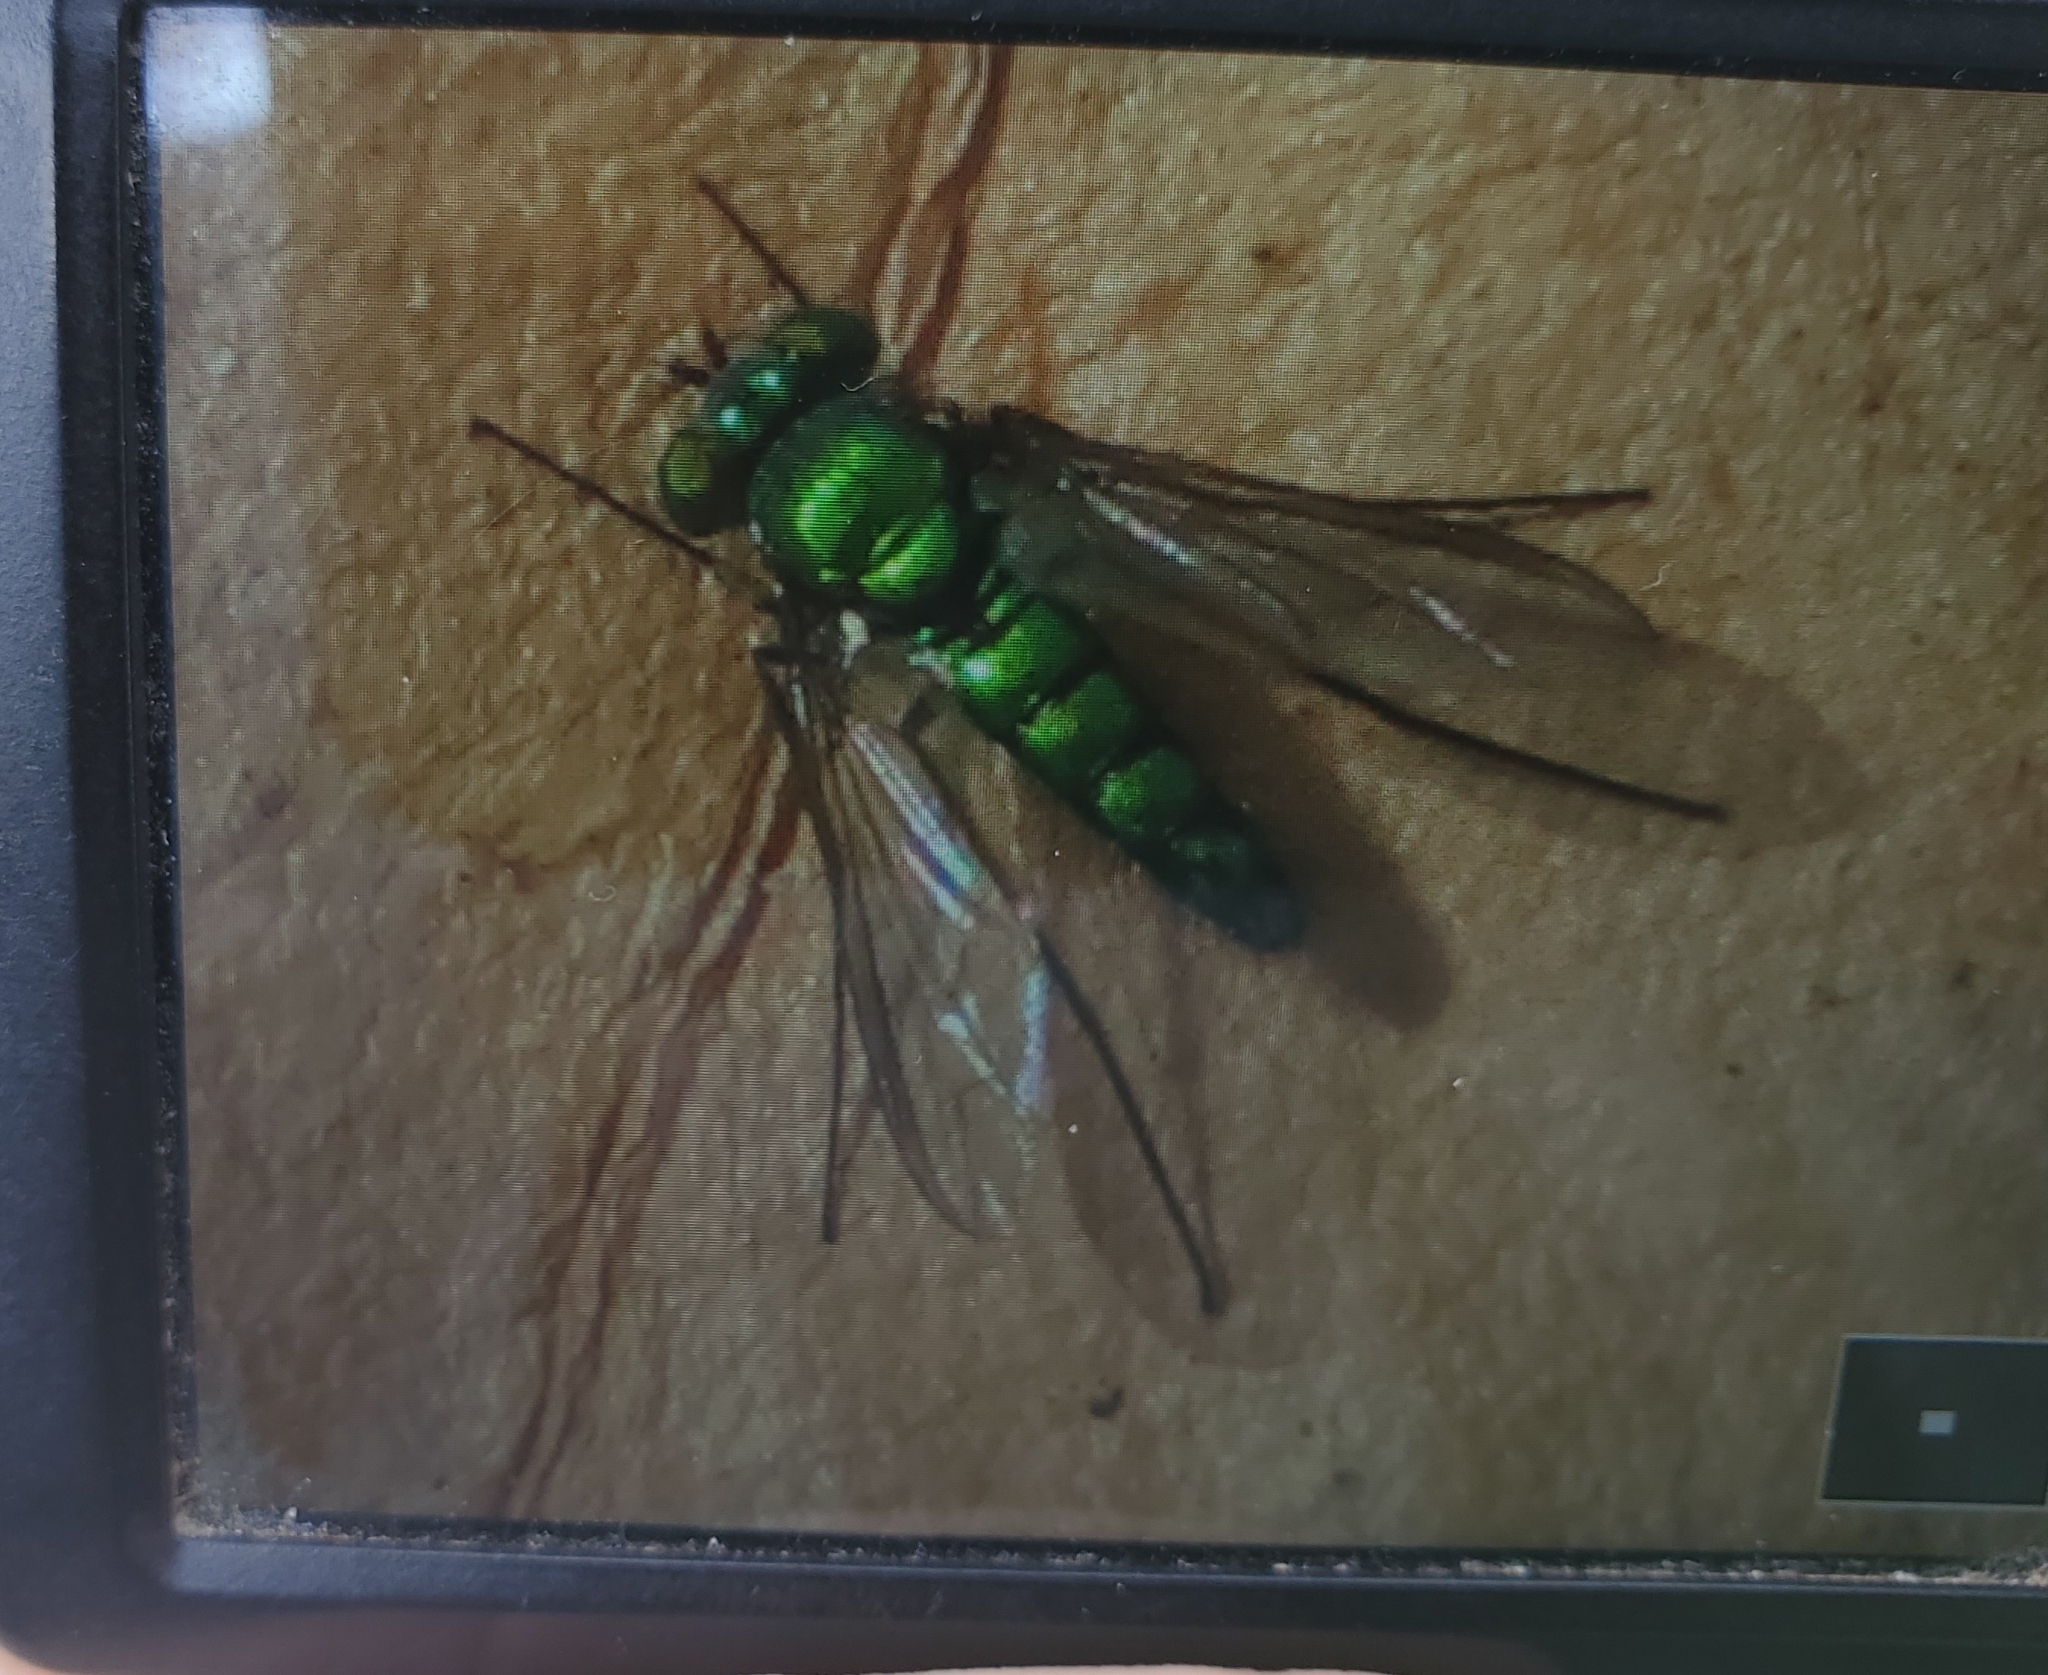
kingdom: Animalia
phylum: Arthropoda
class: Insecta
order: Diptera
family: Dolichopodidae
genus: Condylostylus
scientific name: Condylostylus longicornis
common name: Long-legged fly
